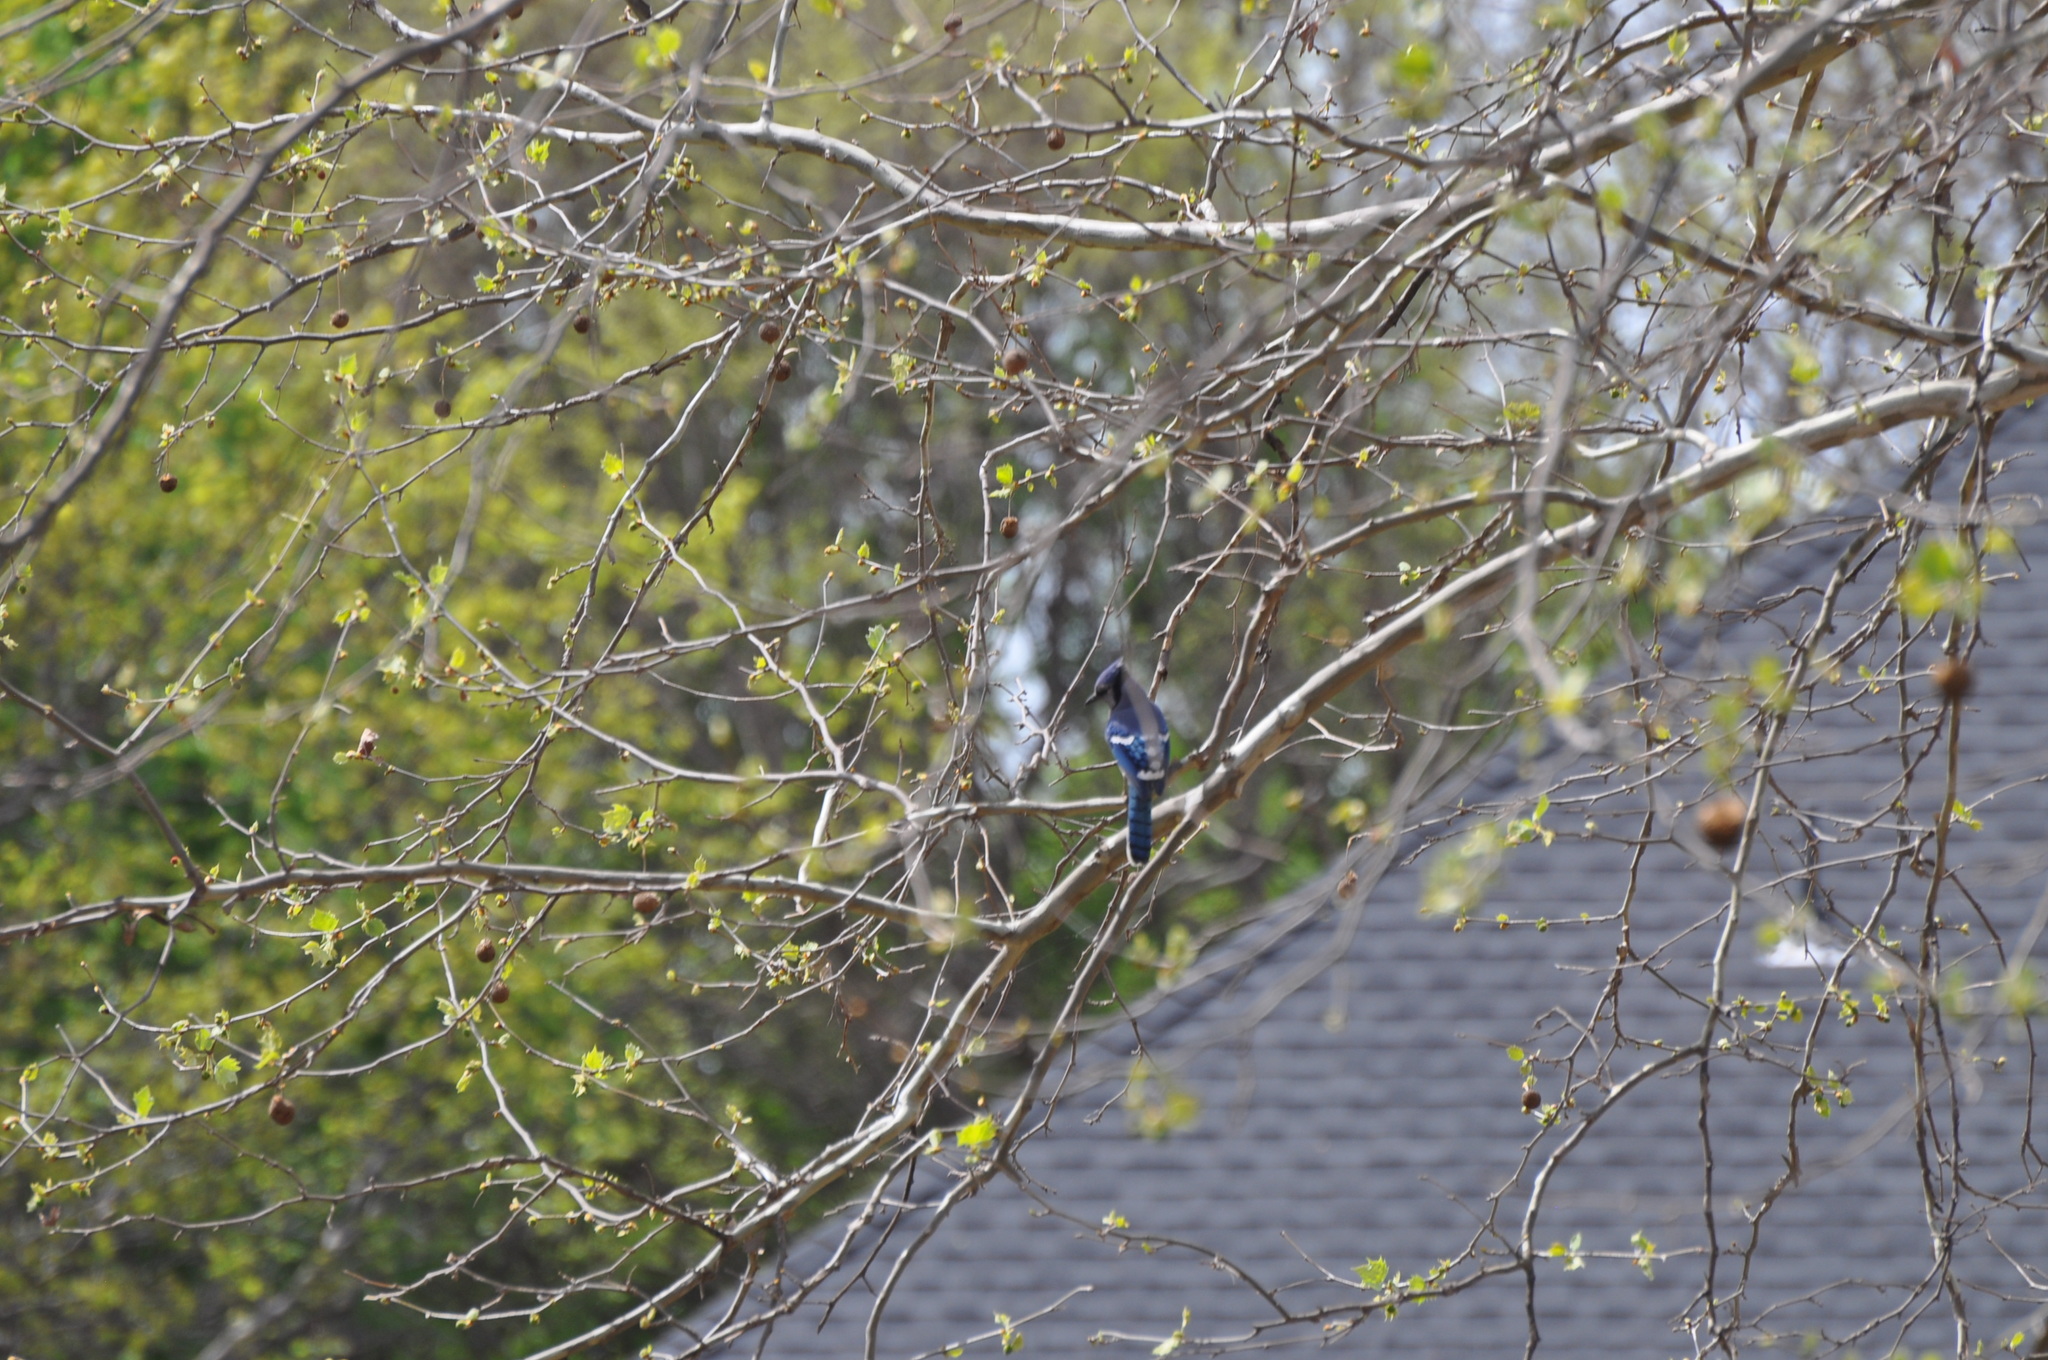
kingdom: Animalia
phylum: Chordata
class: Aves
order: Passeriformes
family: Corvidae
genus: Cyanocitta
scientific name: Cyanocitta cristata
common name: Blue jay
